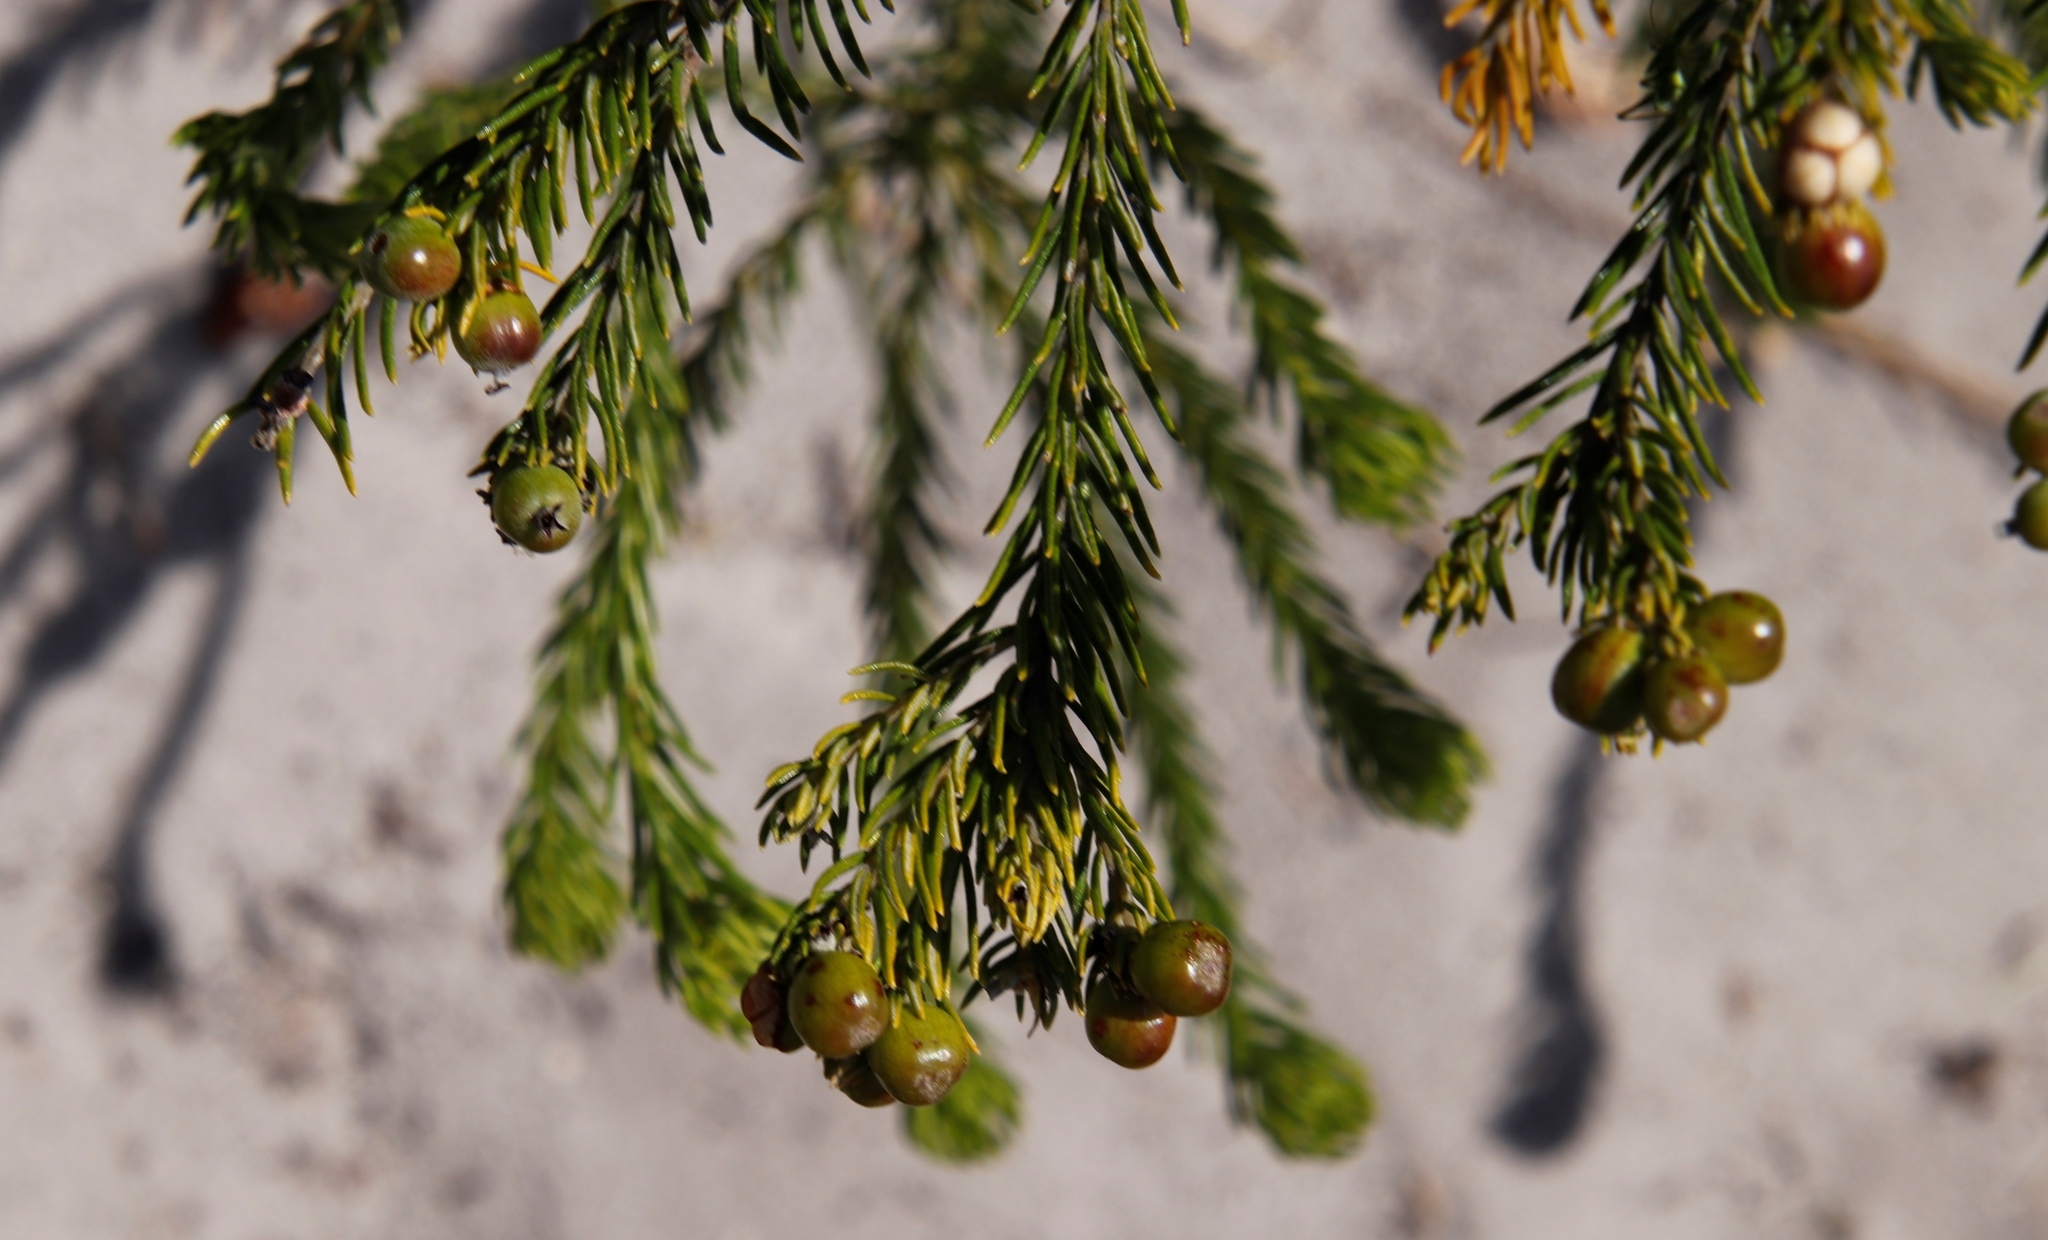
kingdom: Plantae
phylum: Tracheophyta
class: Magnoliopsida
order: Rosales
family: Rhamnaceae
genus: Phylica
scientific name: Phylica imberbis
